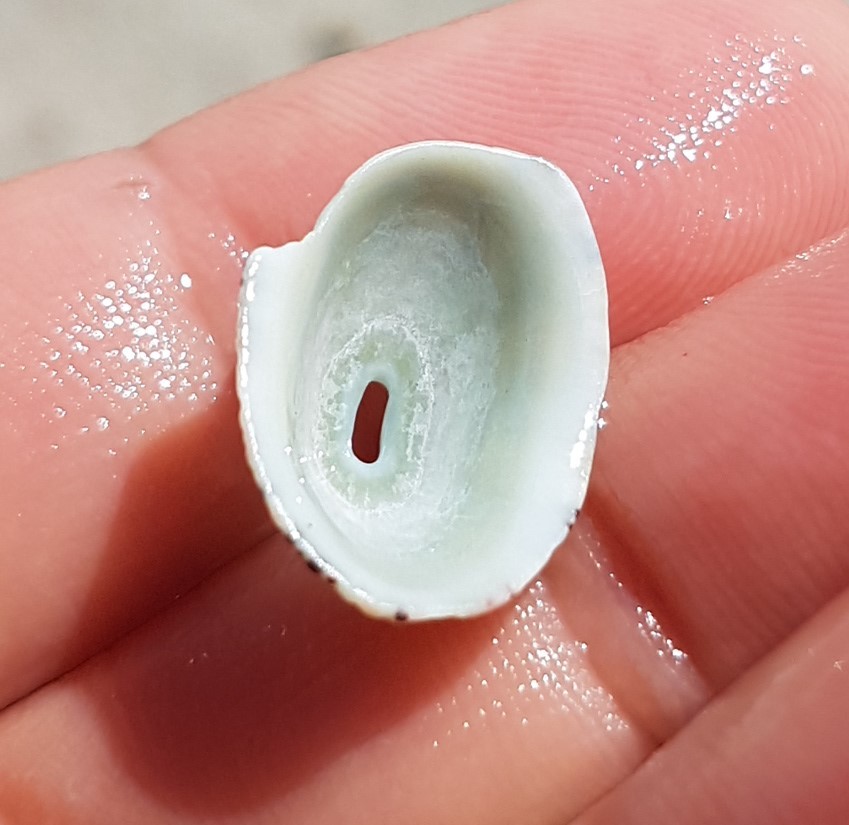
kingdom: Animalia
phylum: Mollusca
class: Gastropoda
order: Lepetellida
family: Fissurellidae
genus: Fissurella
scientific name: Fissurella virescens
